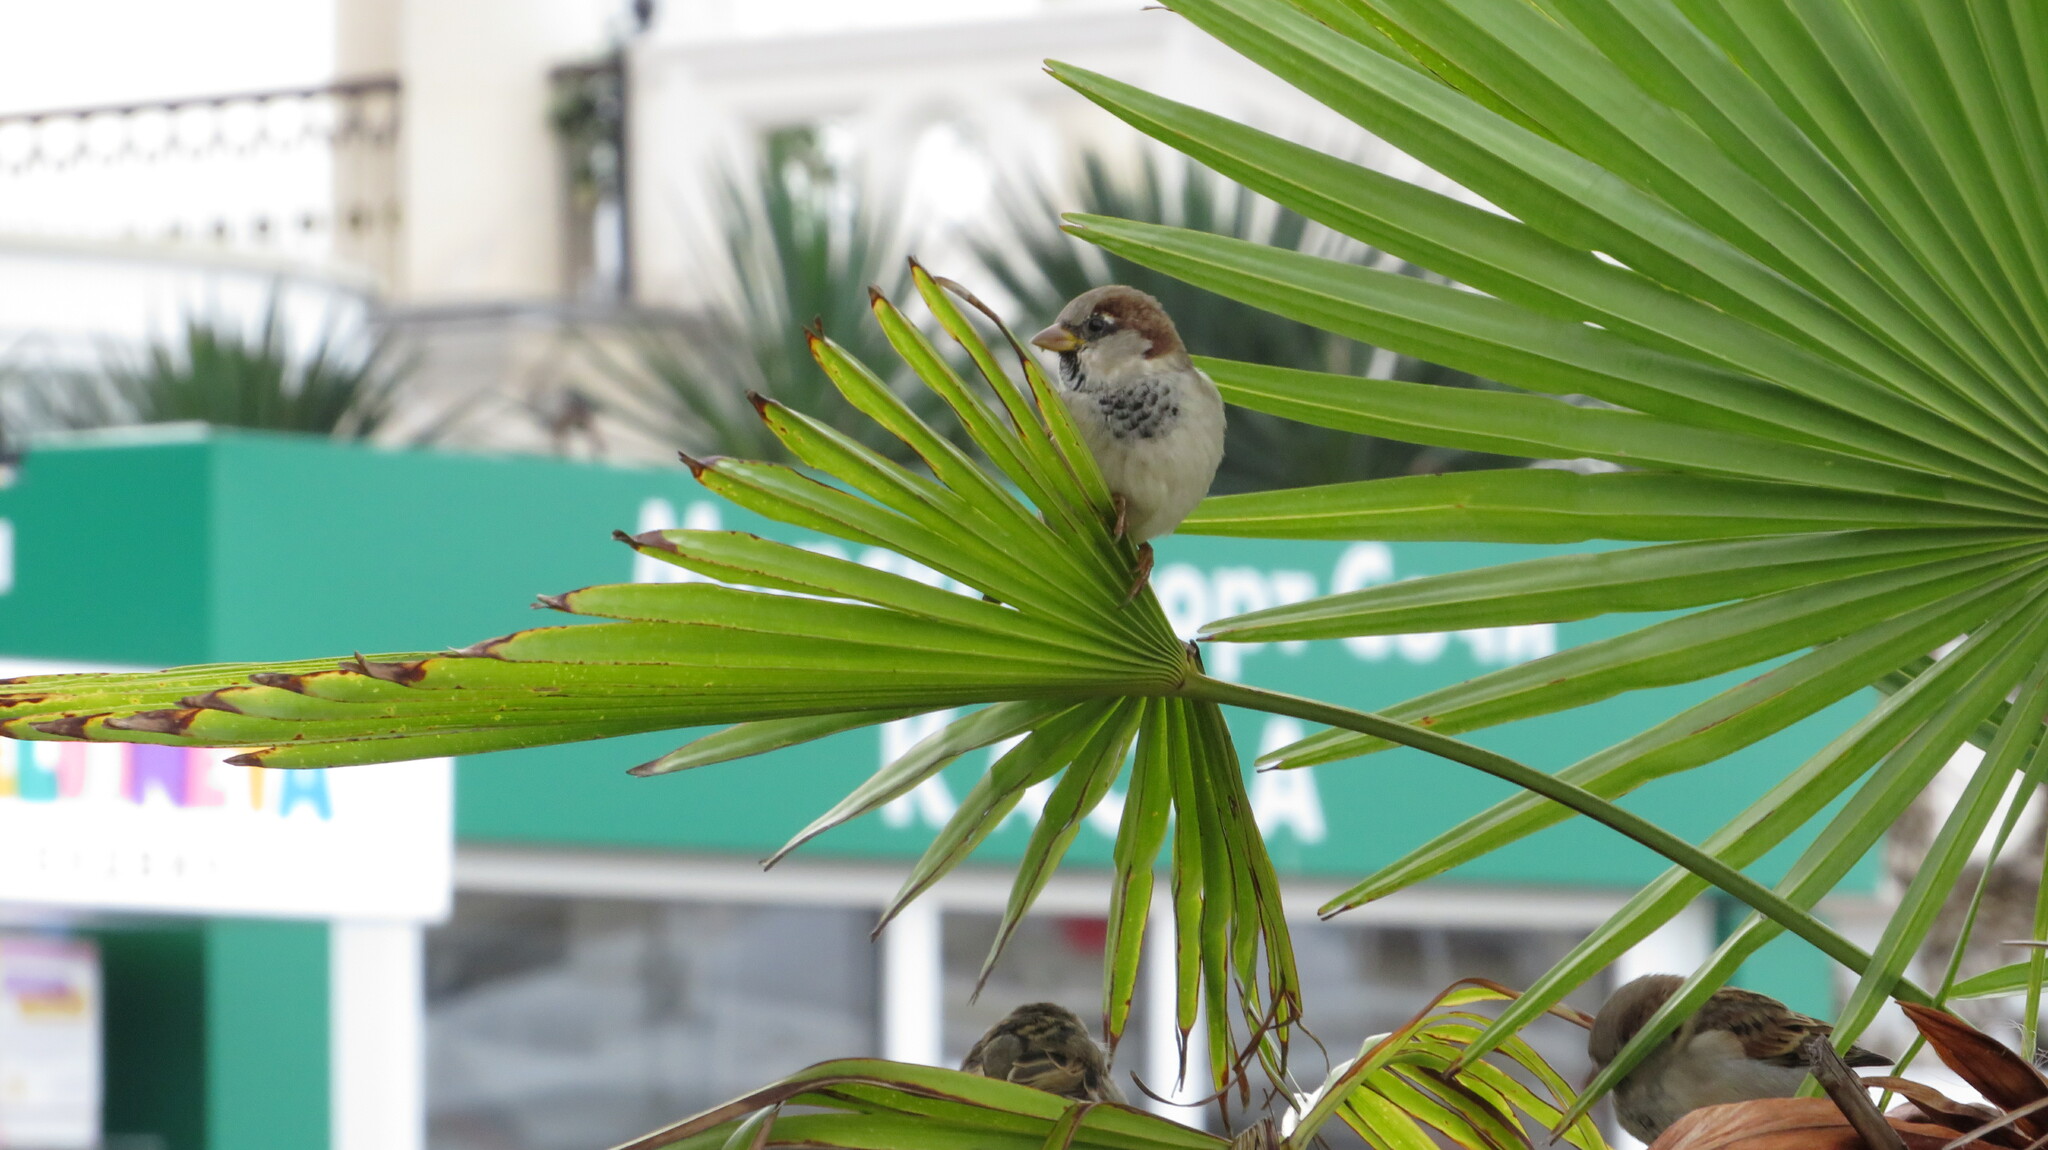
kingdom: Animalia
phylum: Chordata
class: Aves
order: Passeriformes
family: Passeridae
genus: Passer
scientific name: Passer domesticus
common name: House sparrow
